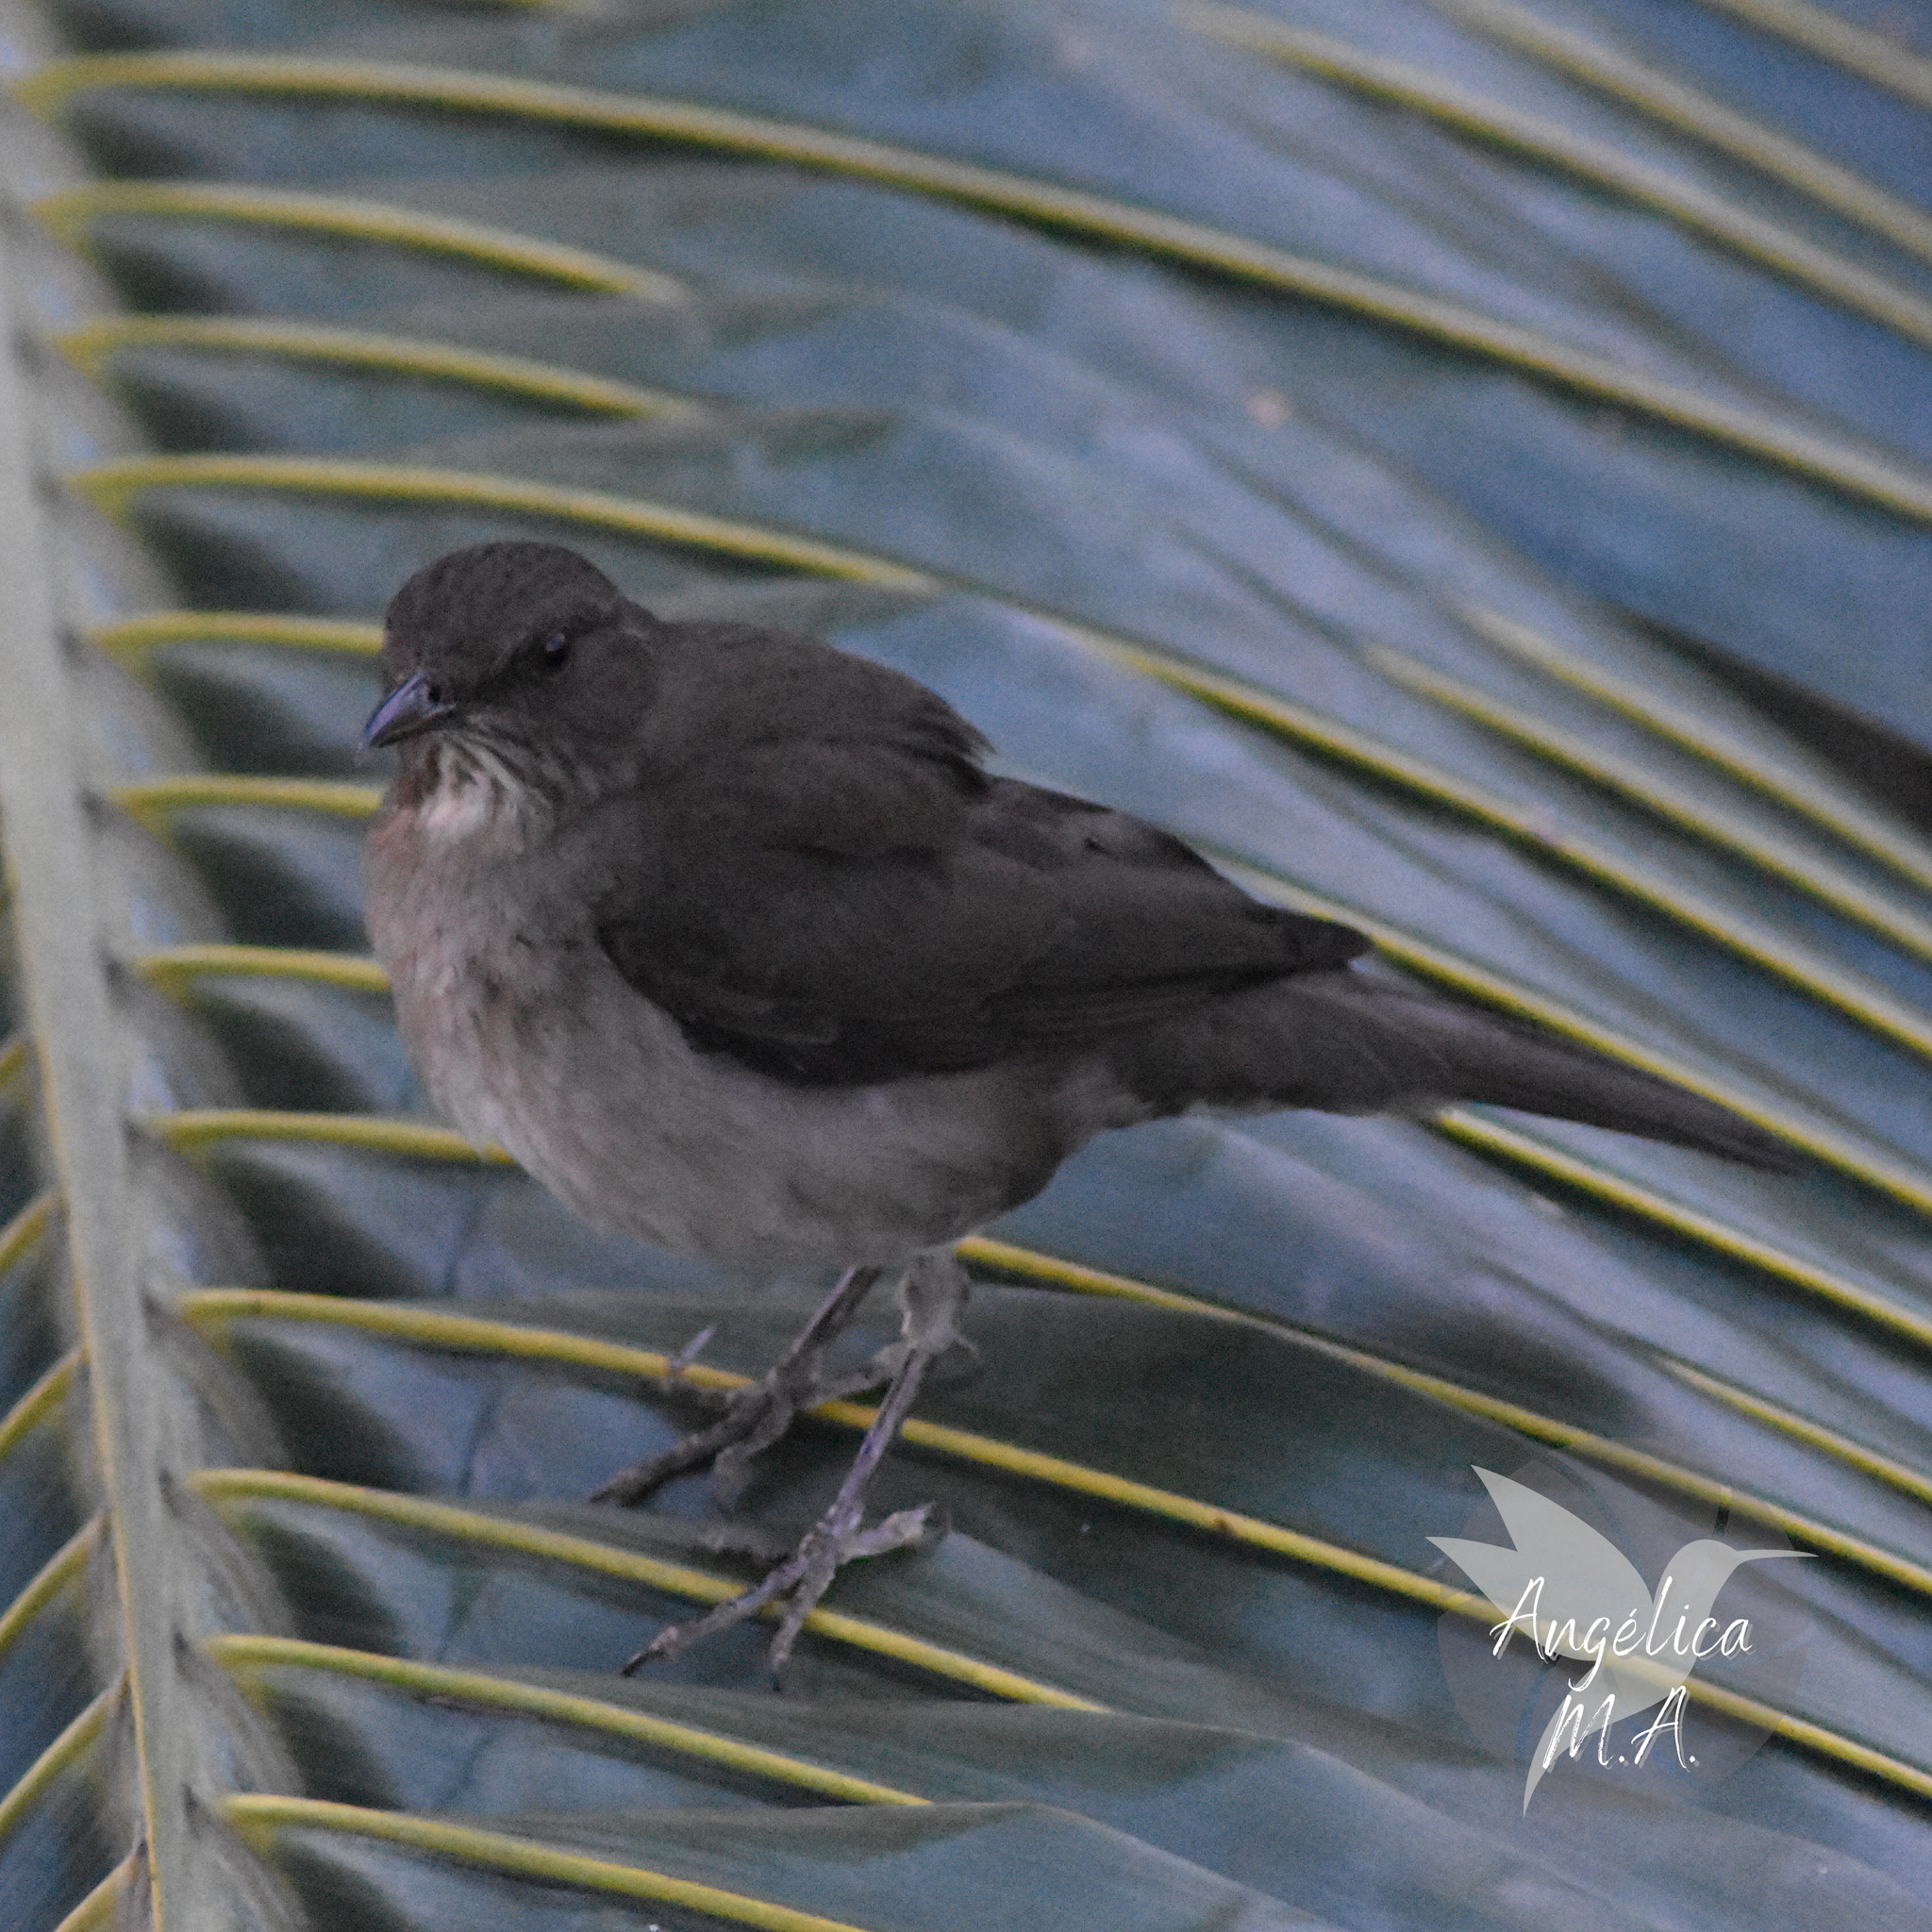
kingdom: Animalia
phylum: Chordata
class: Aves
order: Passeriformes
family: Turdidae
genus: Turdus
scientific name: Turdus ignobilis
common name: Black-billed thrush
